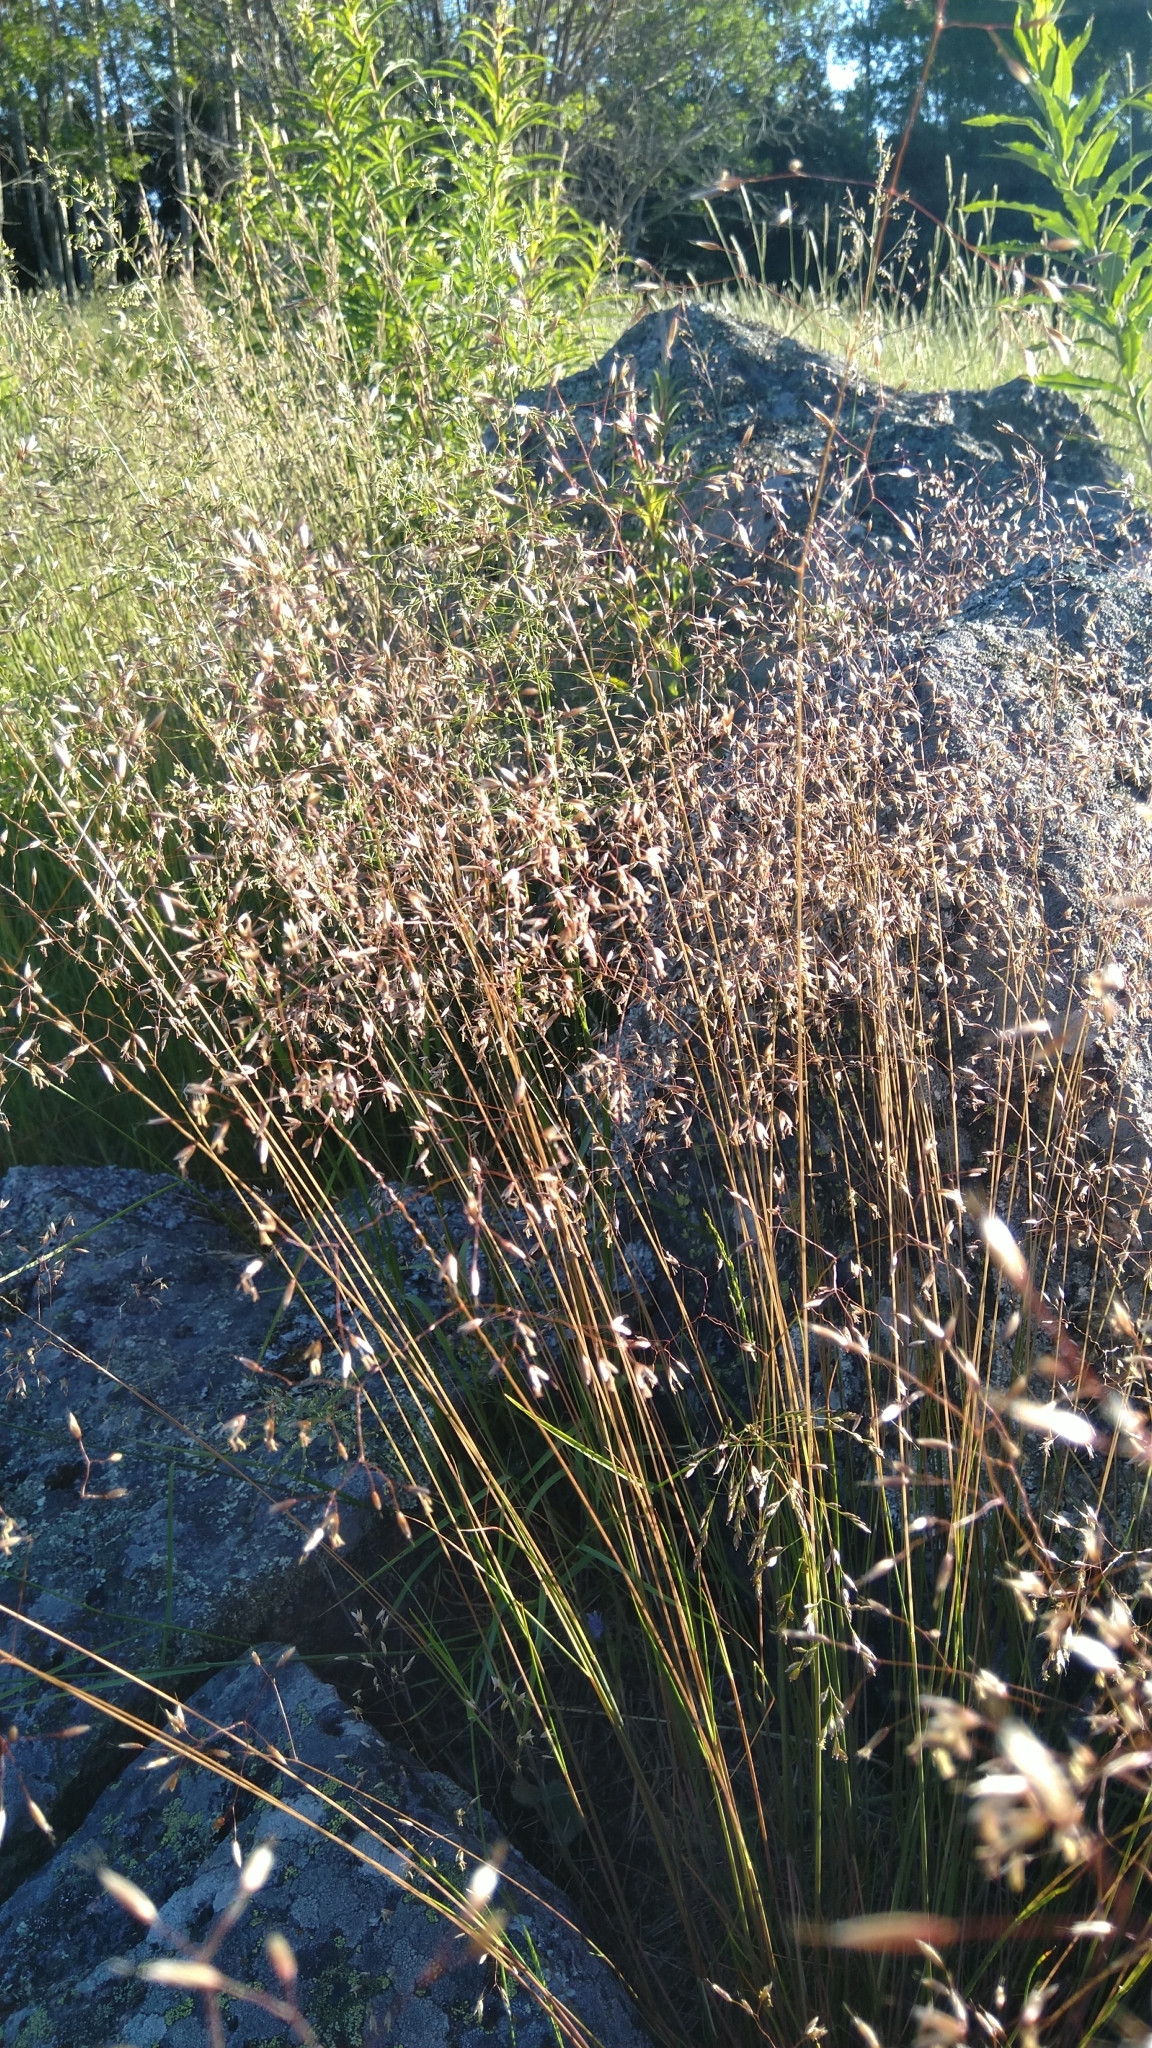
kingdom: Plantae
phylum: Tracheophyta
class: Liliopsida
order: Poales
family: Poaceae
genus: Avenella
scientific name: Avenella flexuosa
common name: Wavy hairgrass
